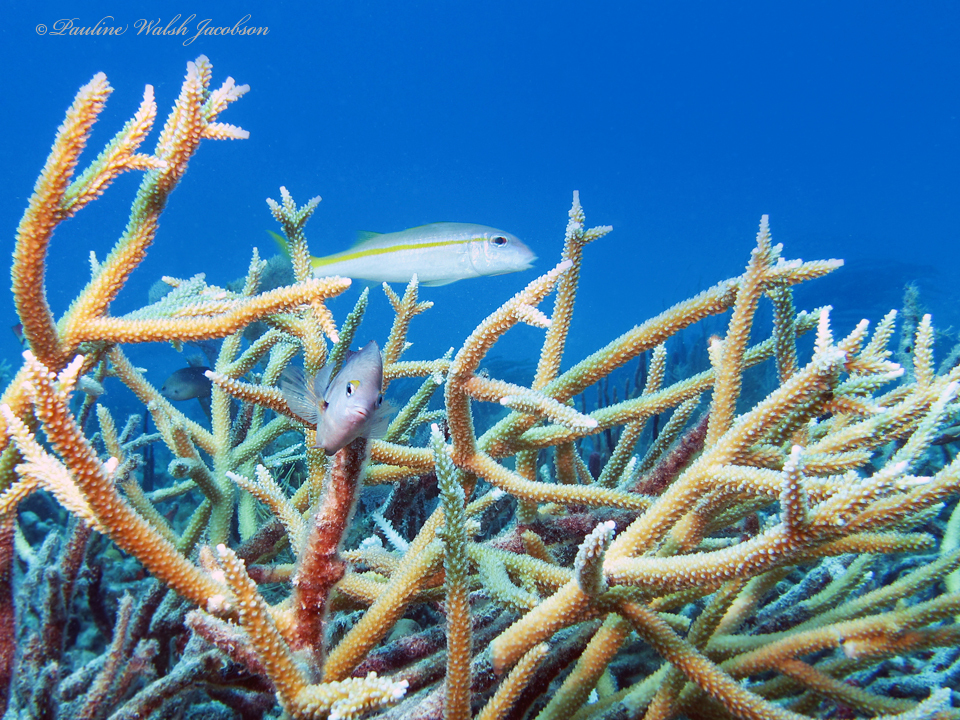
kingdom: Animalia
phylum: Chordata
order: Perciformes
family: Mullidae
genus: Mulloidichthys
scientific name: Mulloidichthys martinicus
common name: Yellow goatfish
